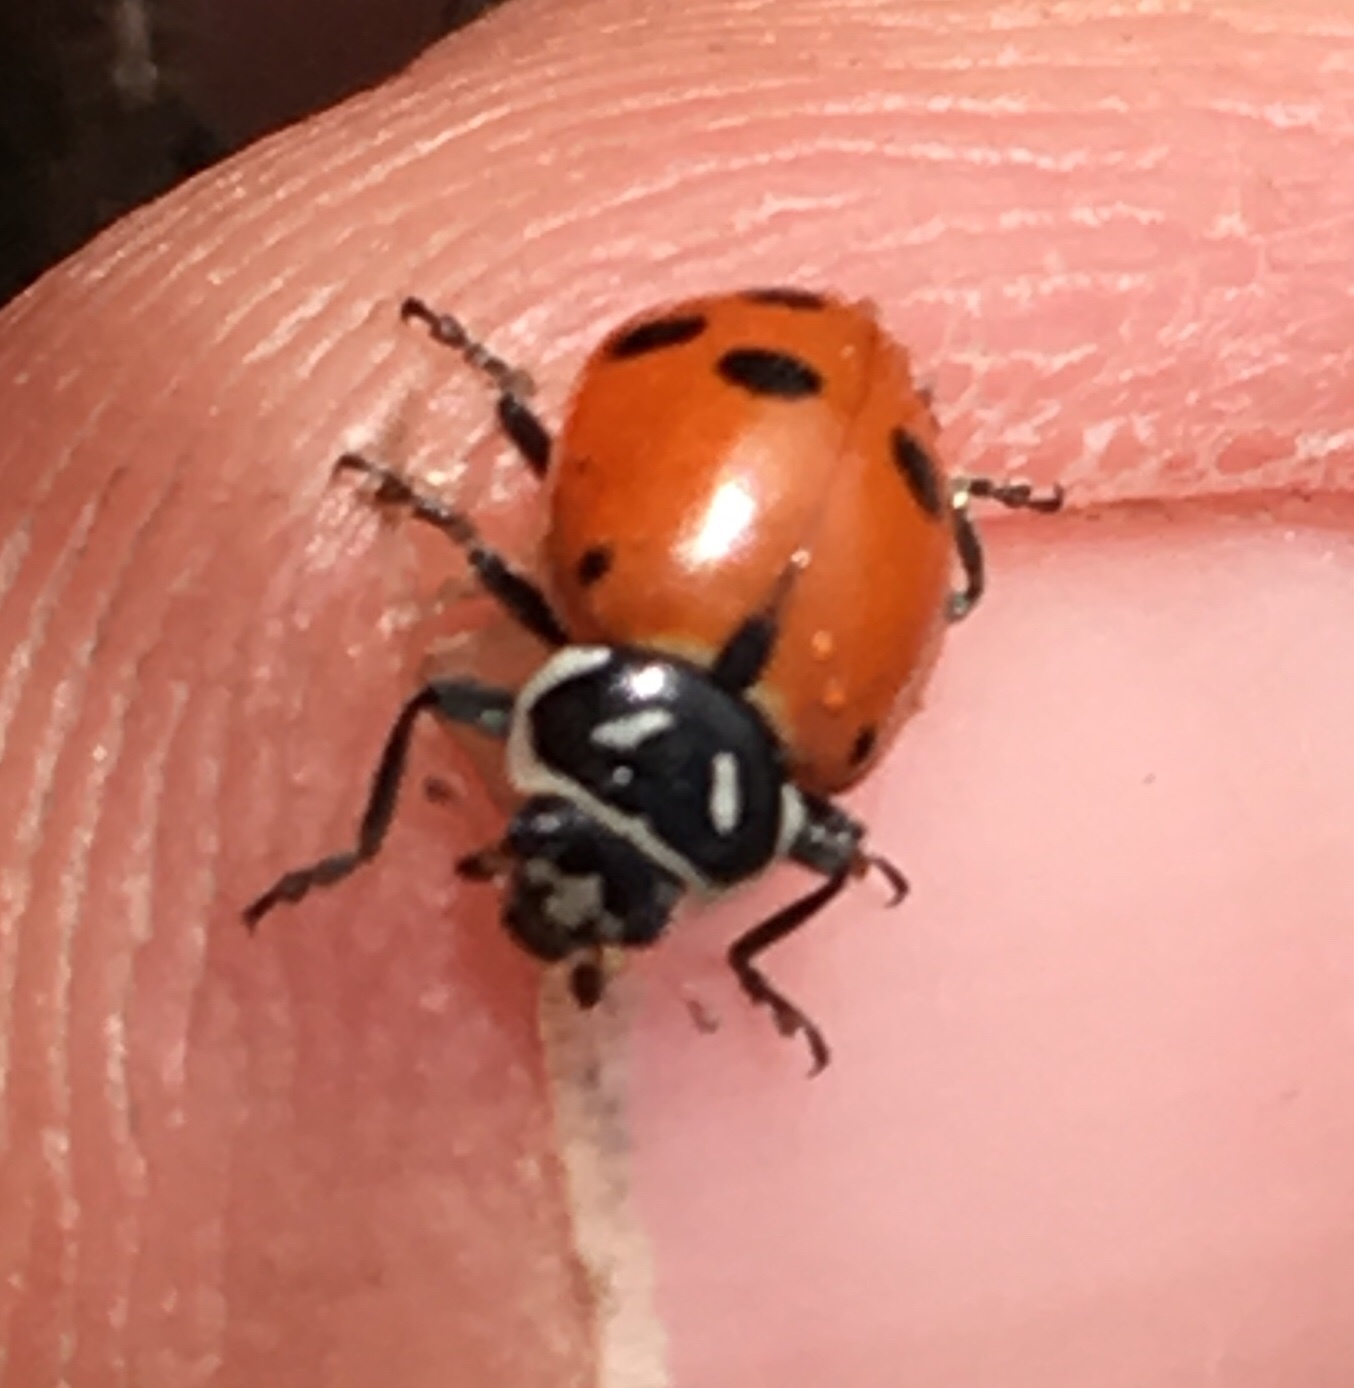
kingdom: Animalia
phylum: Arthropoda
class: Insecta
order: Coleoptera
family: Coccinellidae
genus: Hippodamia
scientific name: Hippodamia convergens
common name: Convergent lady beetle
